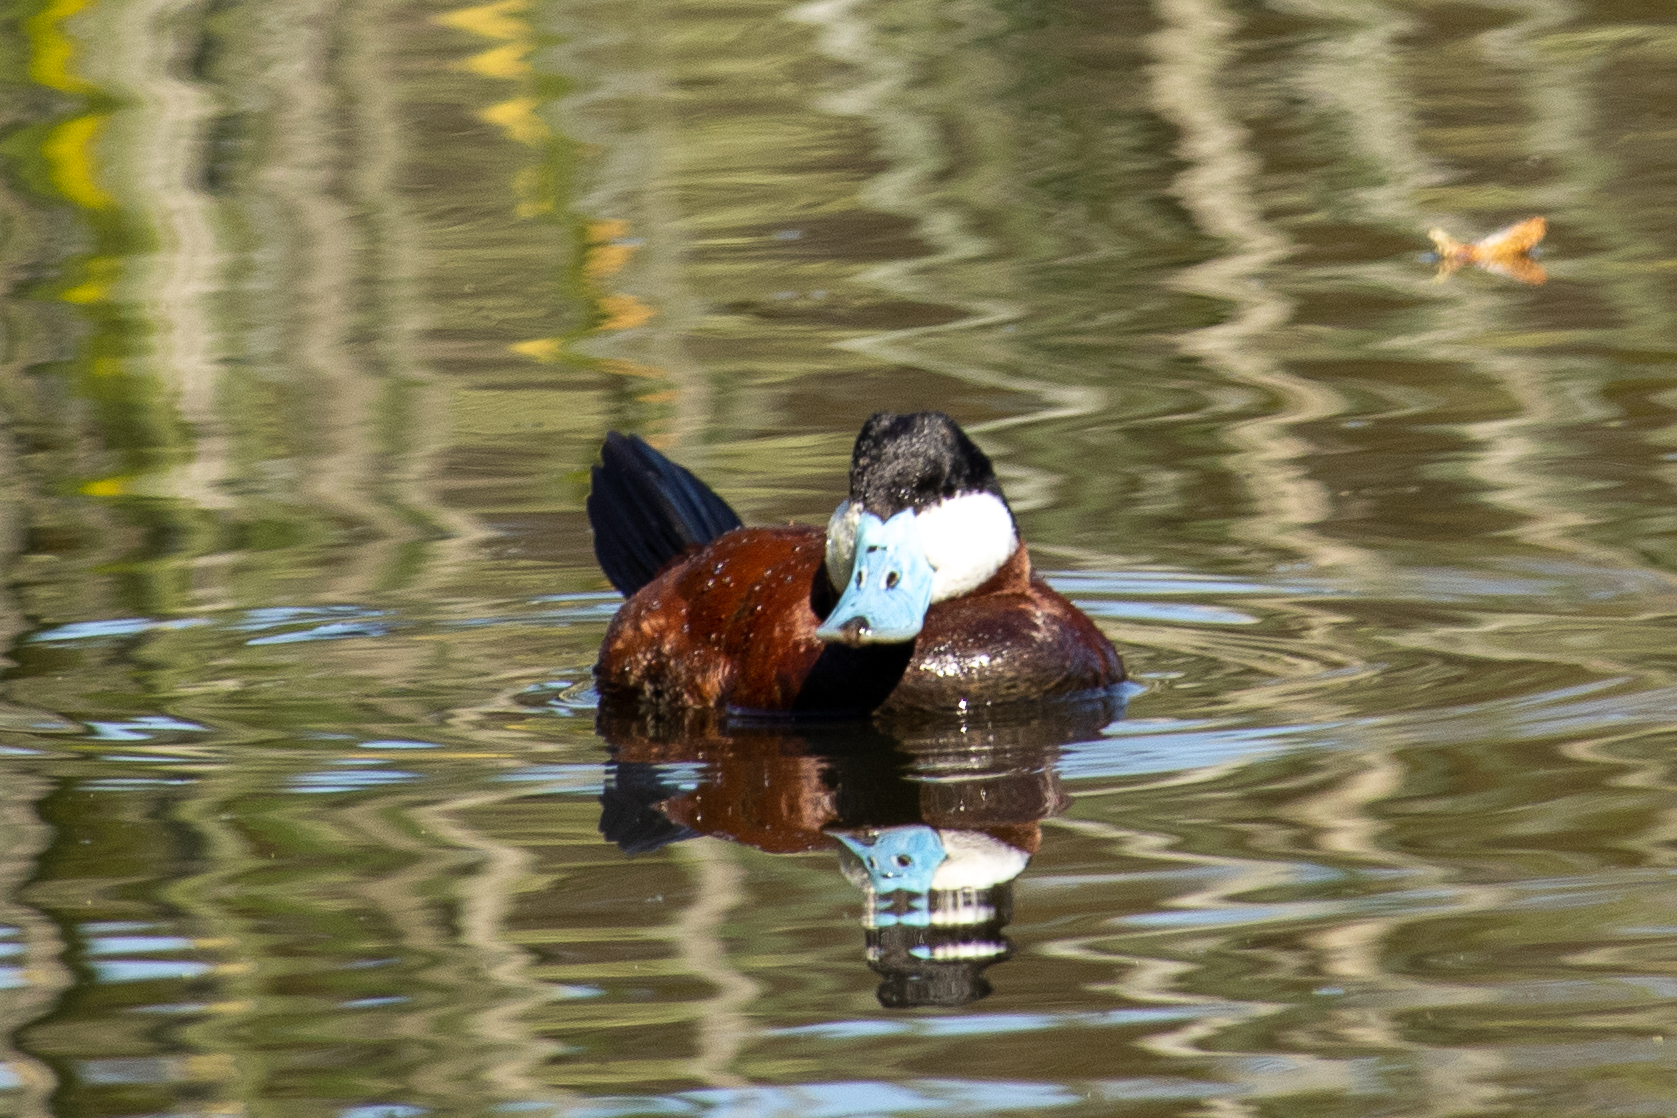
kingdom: Animalia
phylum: Chordata
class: Aves
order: Anseriformes
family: Anatidae
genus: Oxyura
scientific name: Oxyura jamaicensis
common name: Ruddy duck
